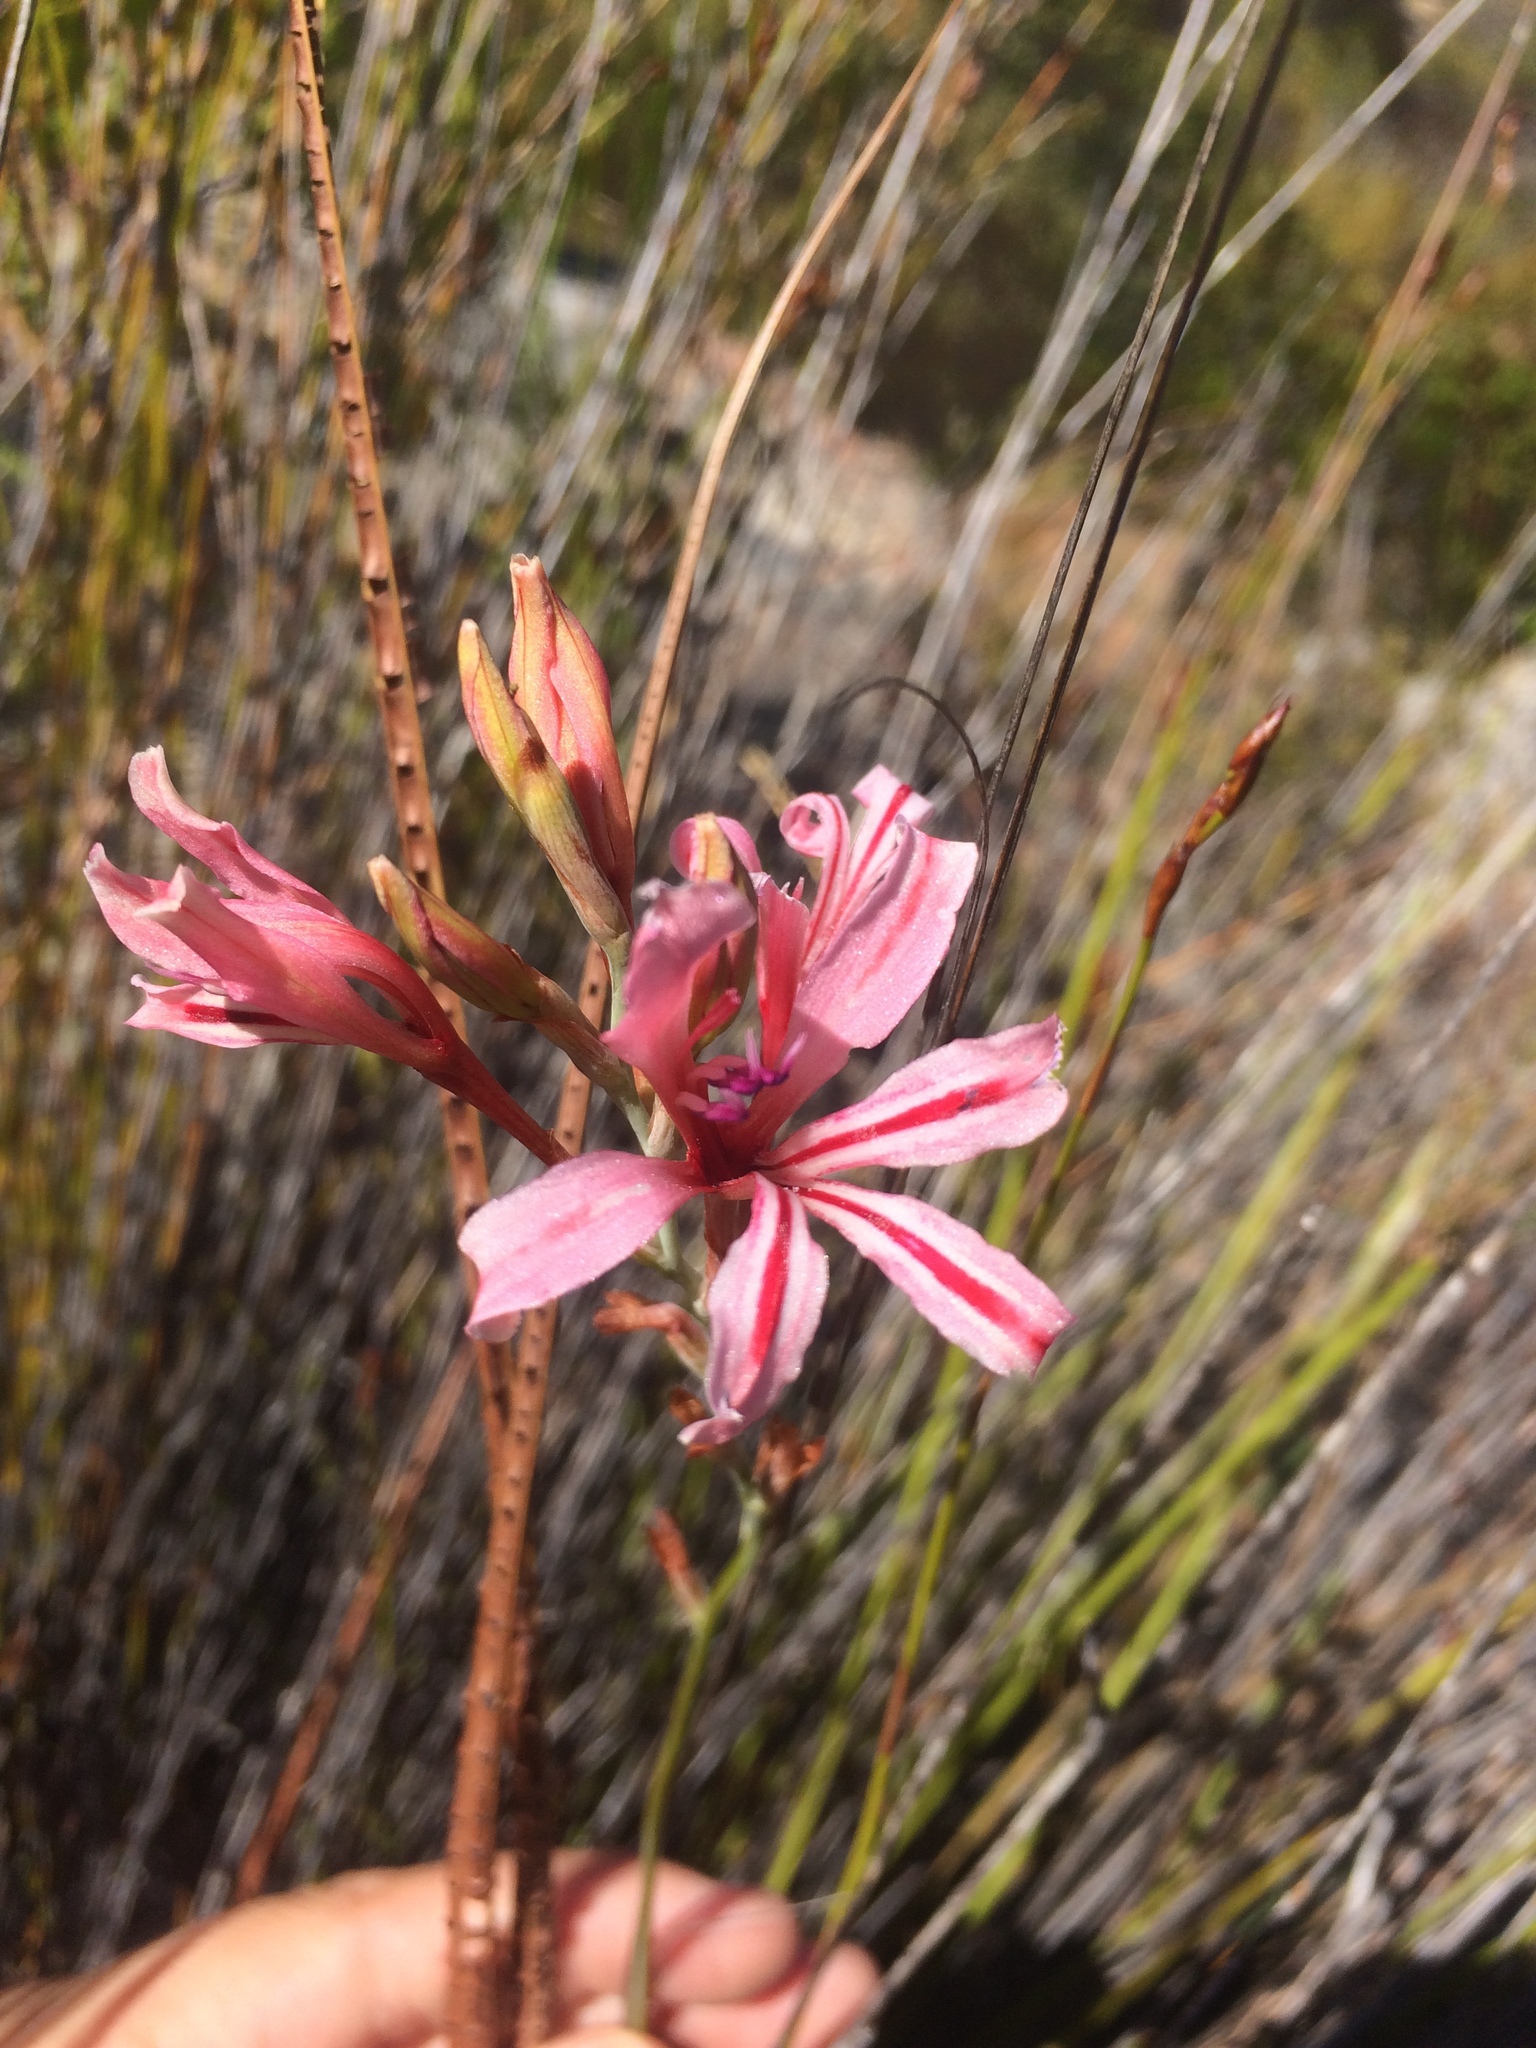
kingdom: Plantae
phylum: Tracheophyta
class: Liliopsida
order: Asparagales
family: Iridaceae
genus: Tritoniopsis
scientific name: Tritoniopsis toximontana
